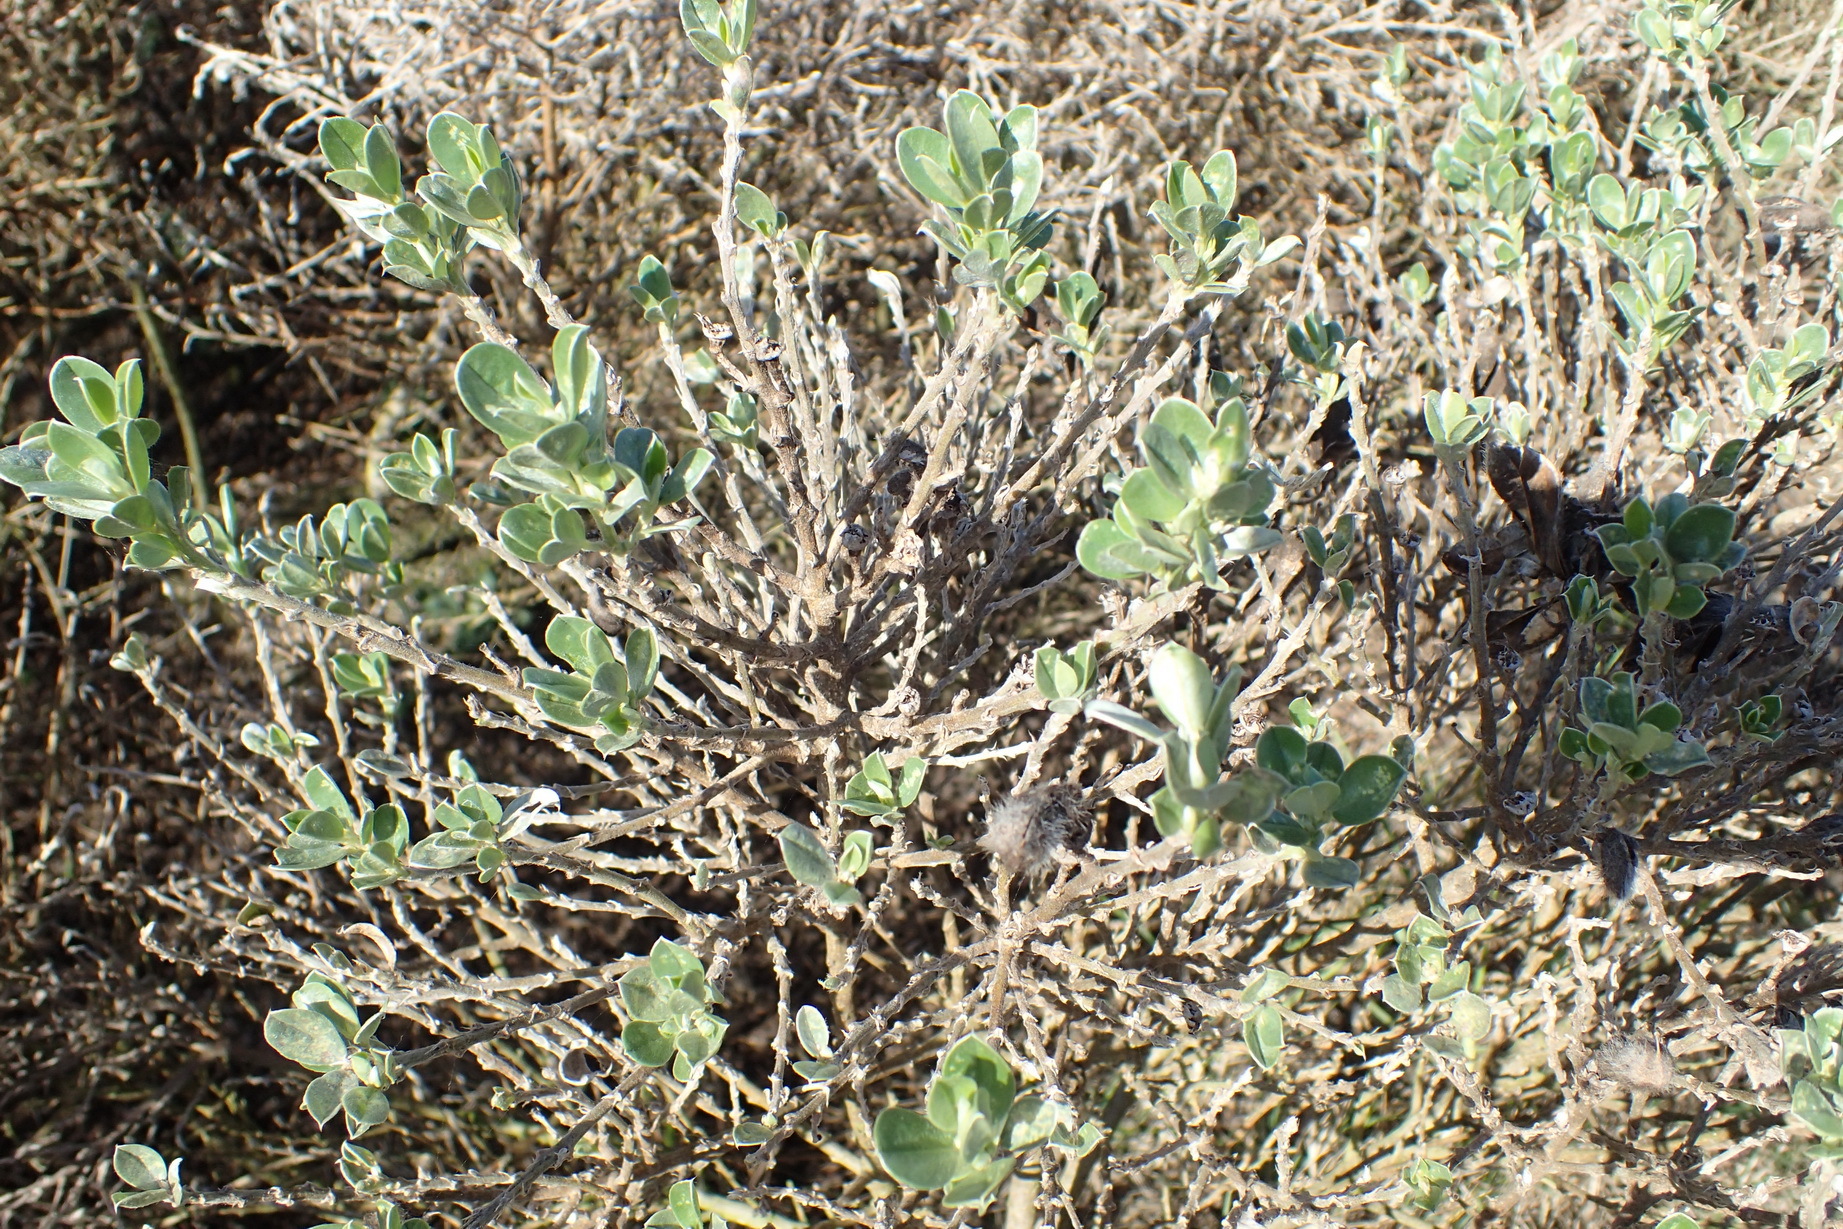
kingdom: Plantae
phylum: Tracheophyta
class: Magnoliopsida
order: Fabales
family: Fabaceae
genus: Podalyria
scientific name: Podalyria myrtillifolia
